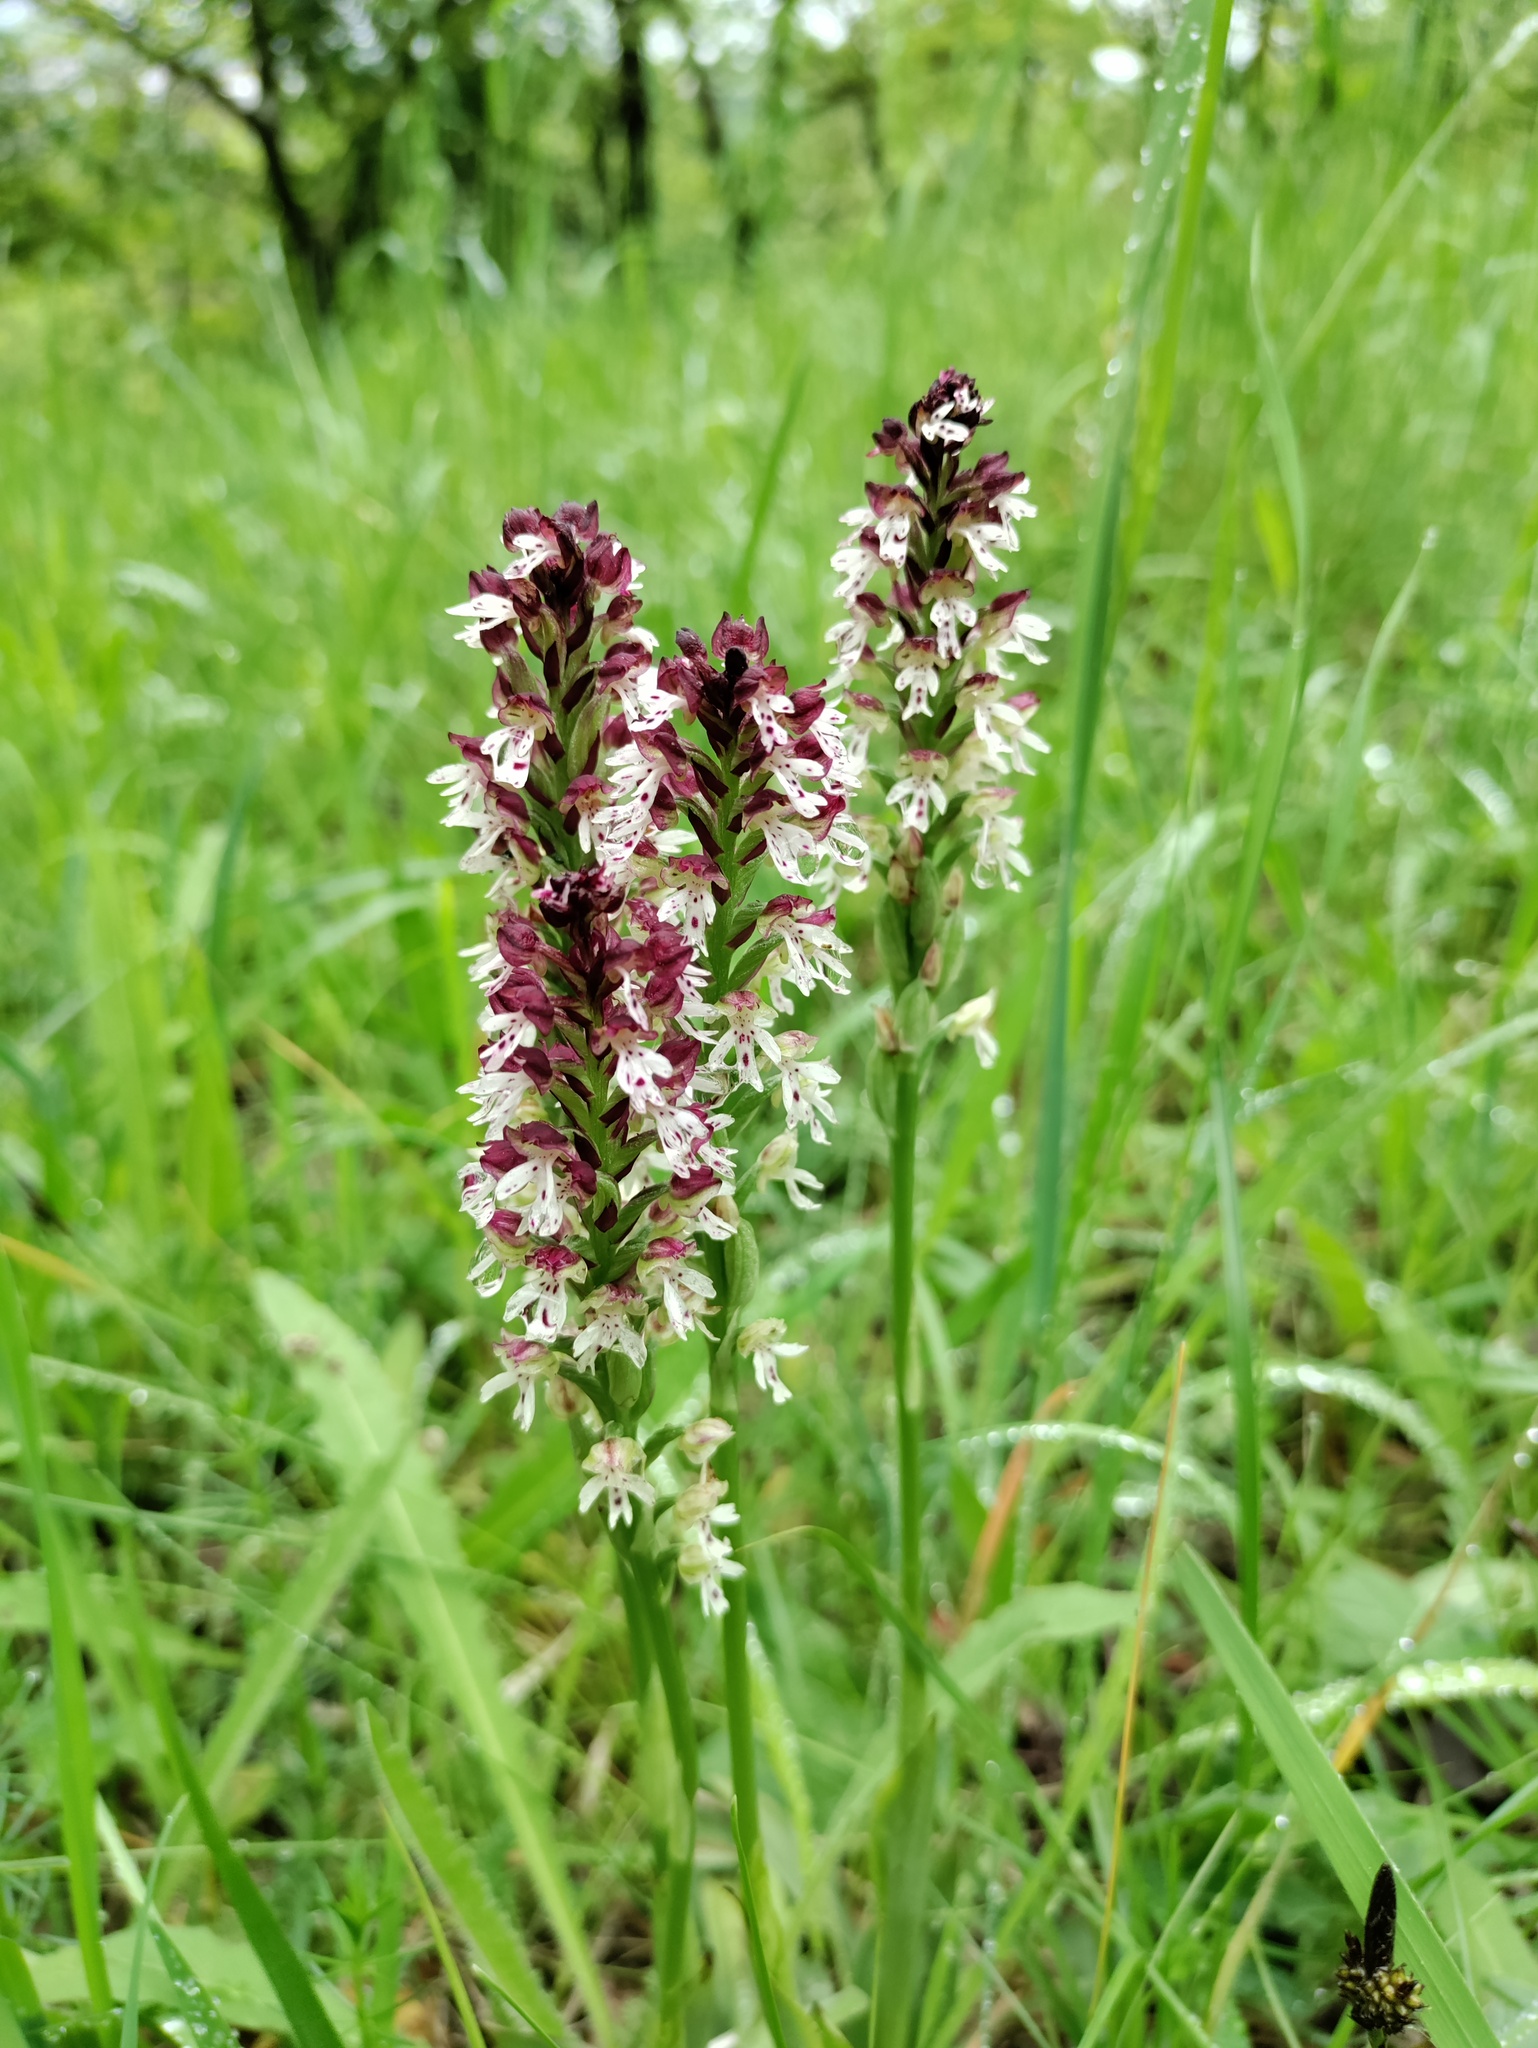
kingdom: Plantae
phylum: Tracheophyta
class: Liliopsida
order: Asparagales
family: Orchidaceae
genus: Neotinea
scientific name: Neotinea ustulata
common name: Burnt orchid
